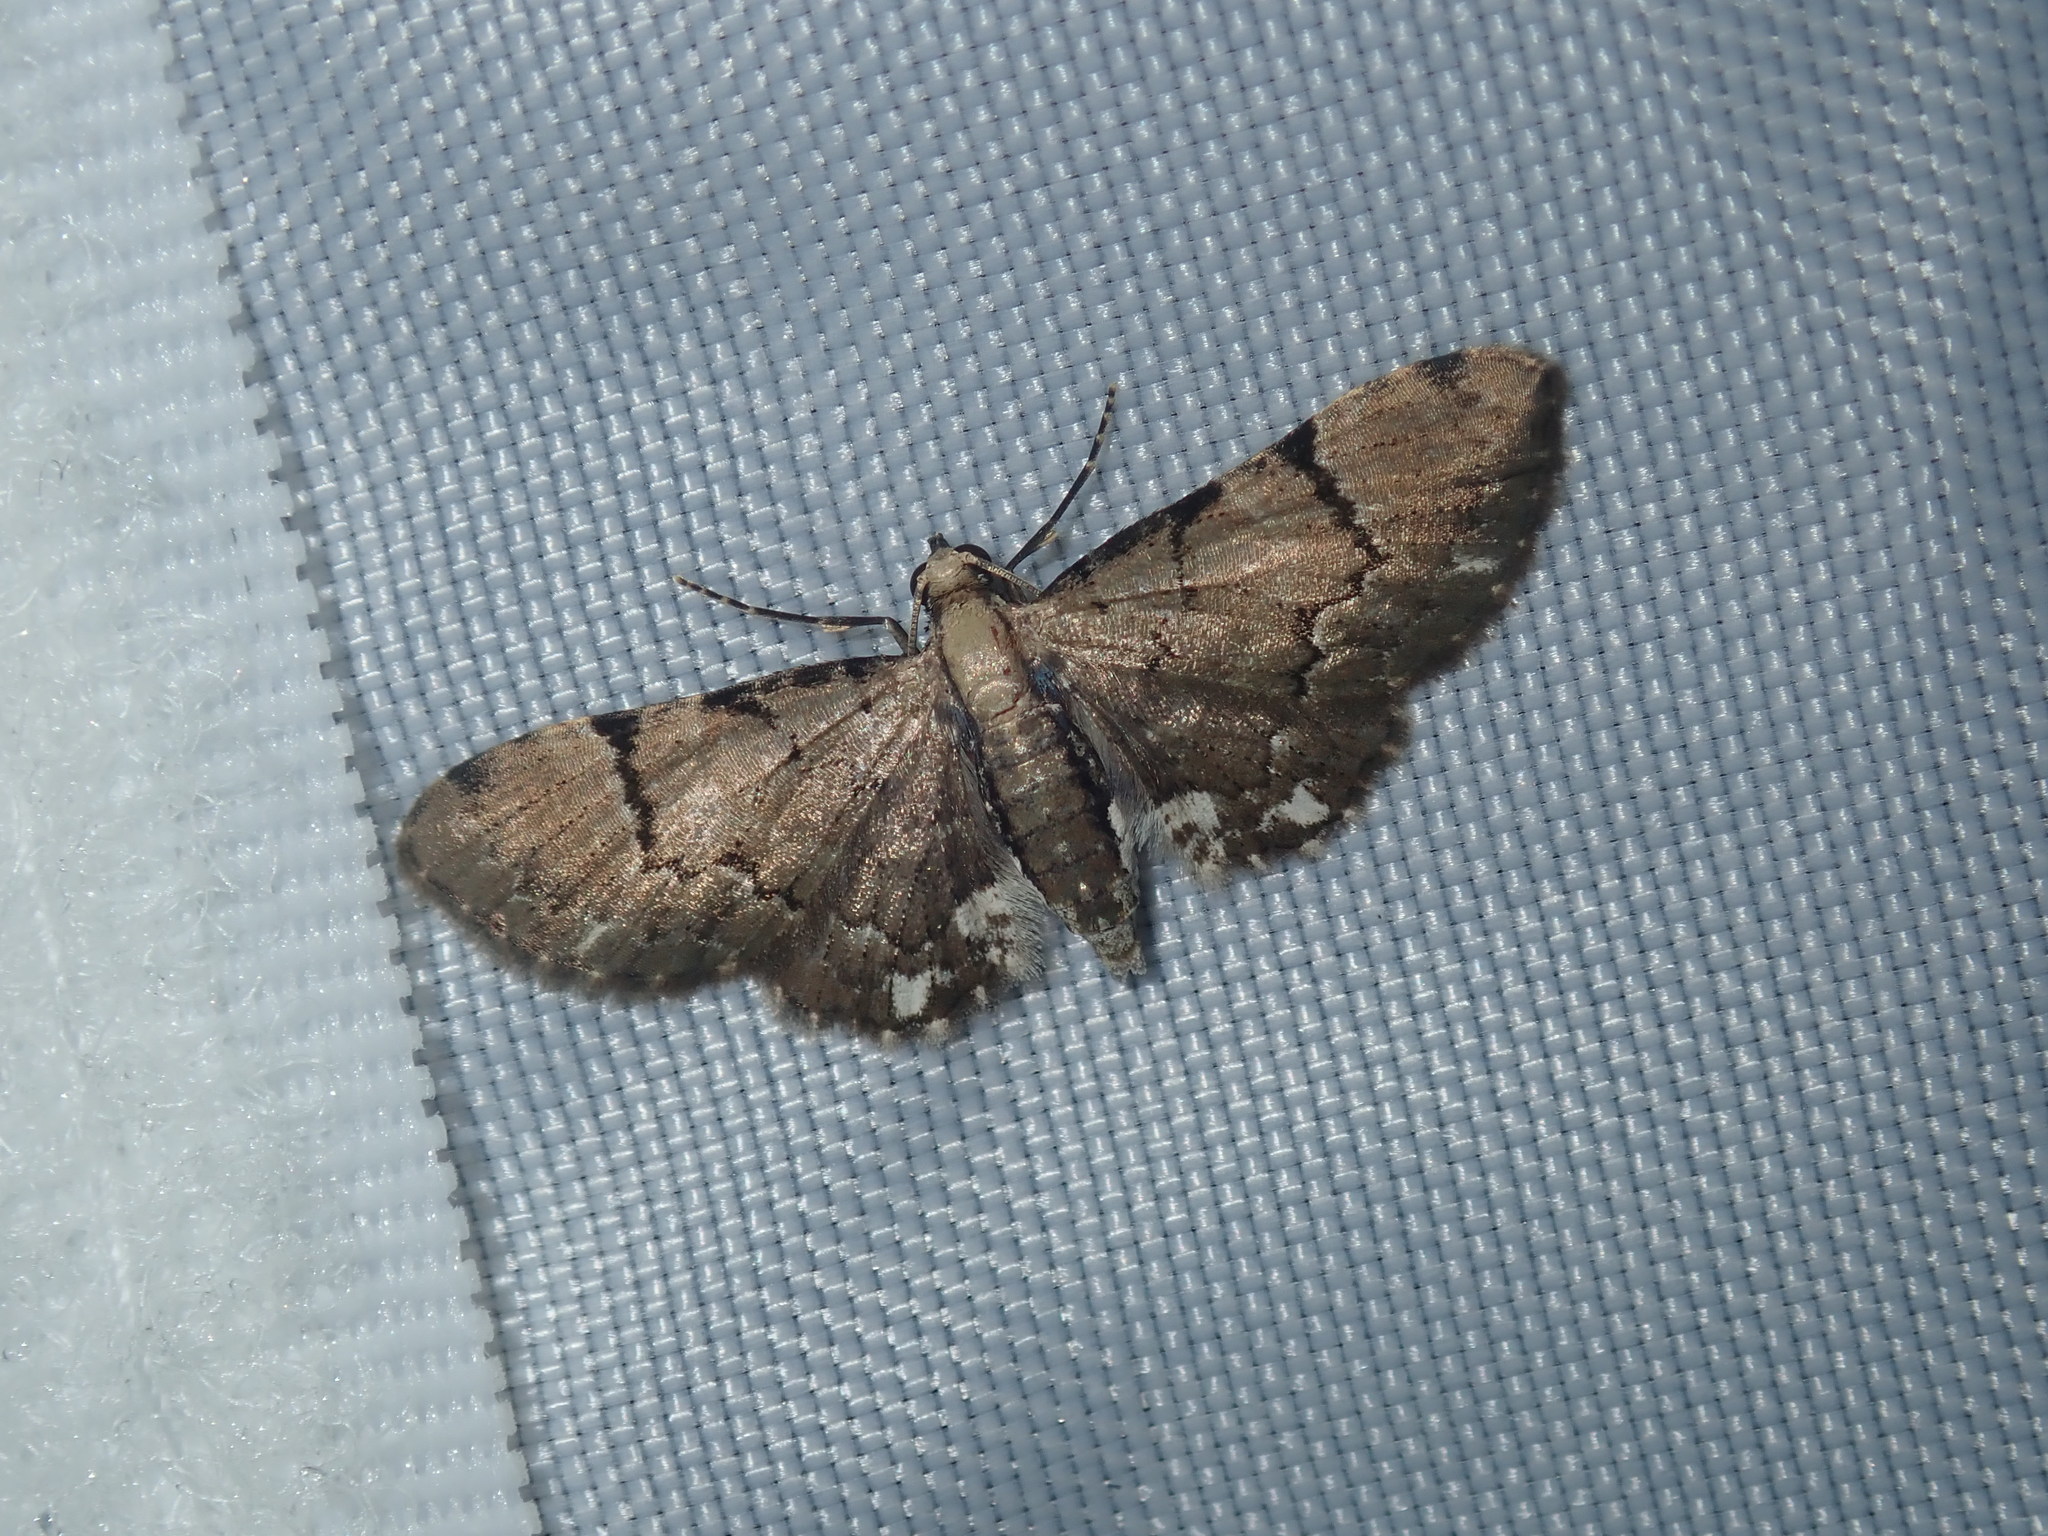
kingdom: Animalia
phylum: Arthropoda
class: Insecta
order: Lepidoptera
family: Geometridae
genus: Chloroclystis
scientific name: Chloroclystis
